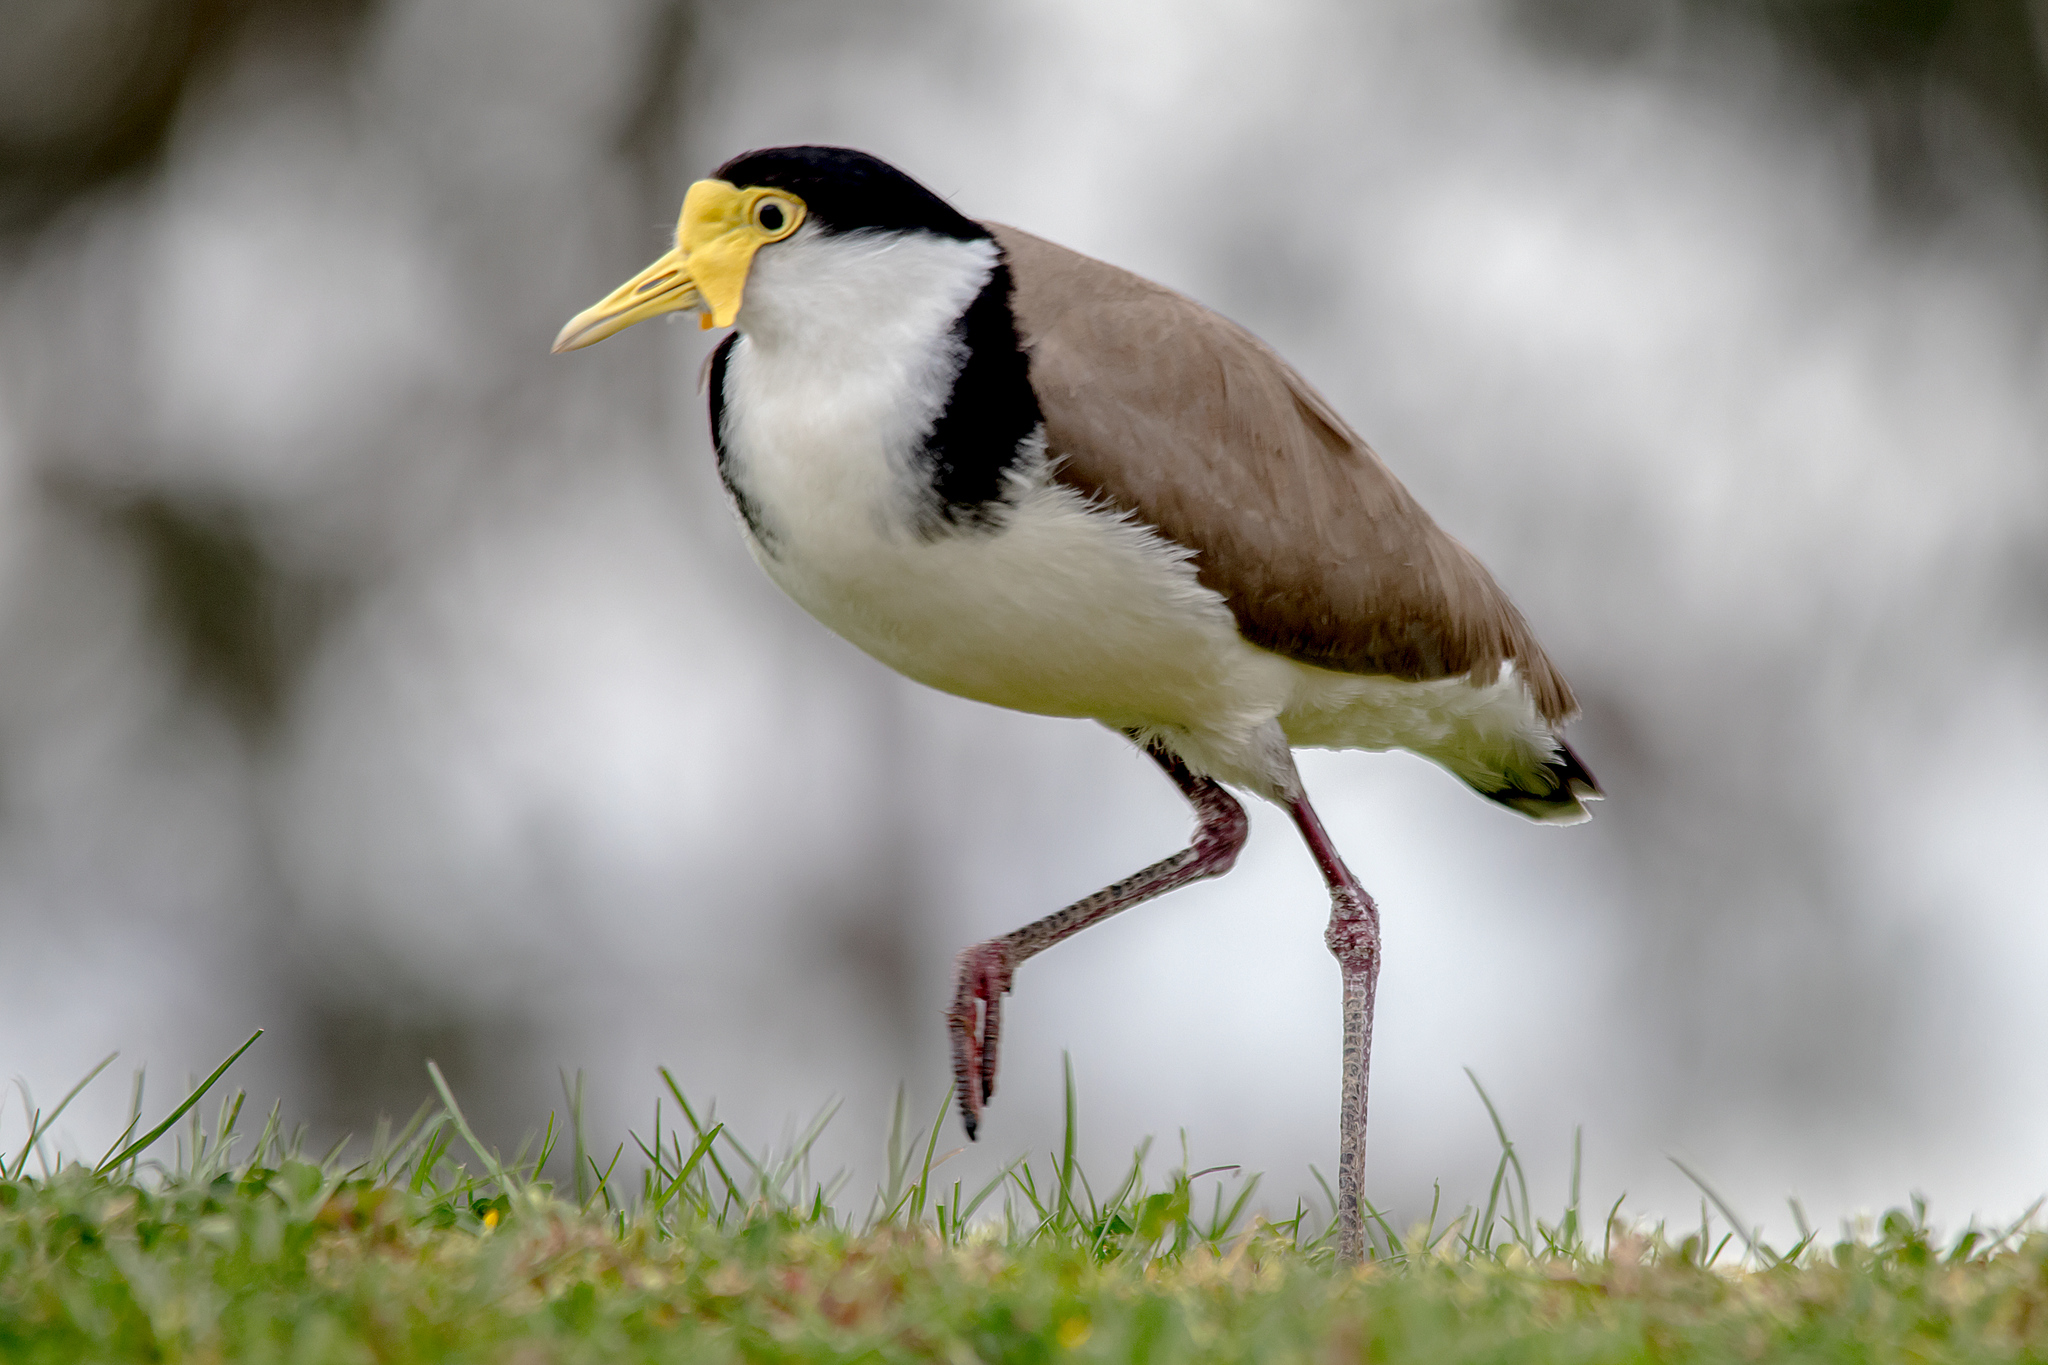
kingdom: Animalia
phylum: Chordata
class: Aves
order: Charadriiformes
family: Charadriidae
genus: Vanellus
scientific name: Vanellus miles
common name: Masked lapwing
